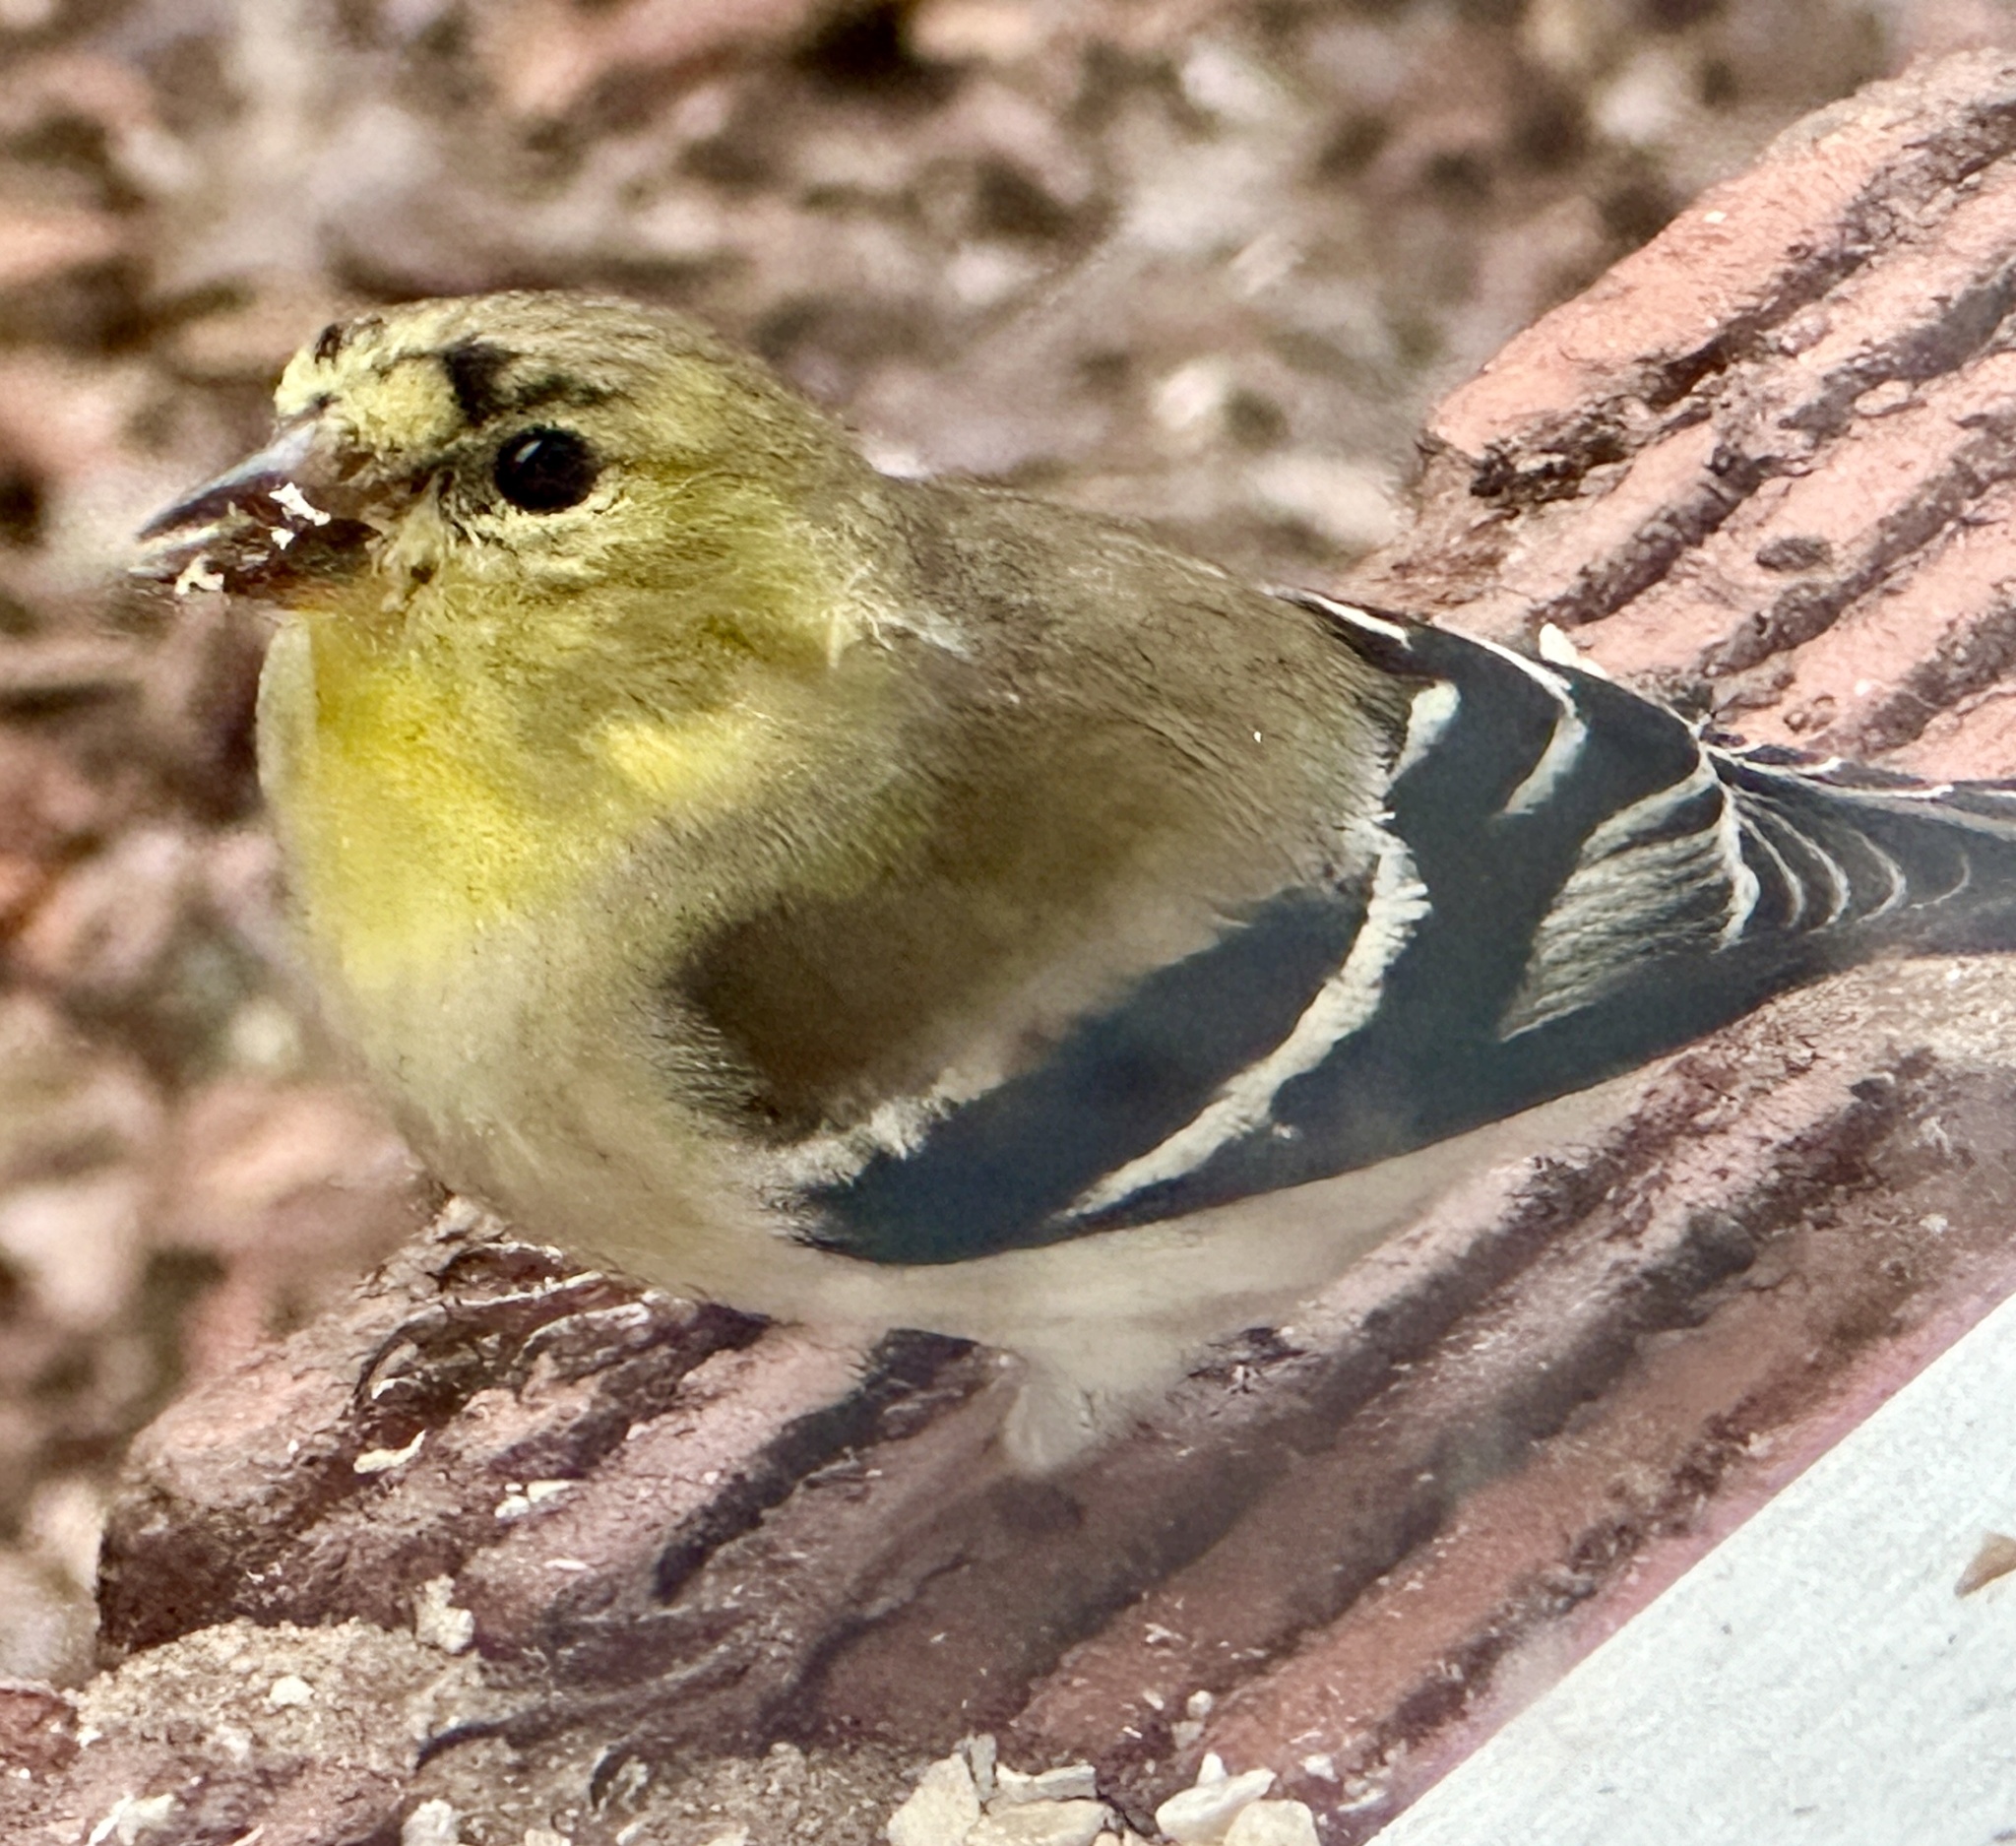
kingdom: Animalia
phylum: Chordata
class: Aves
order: Passeriformes
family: Fringillidae
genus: Spinus
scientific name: Spinus tristis
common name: American goldfinch
